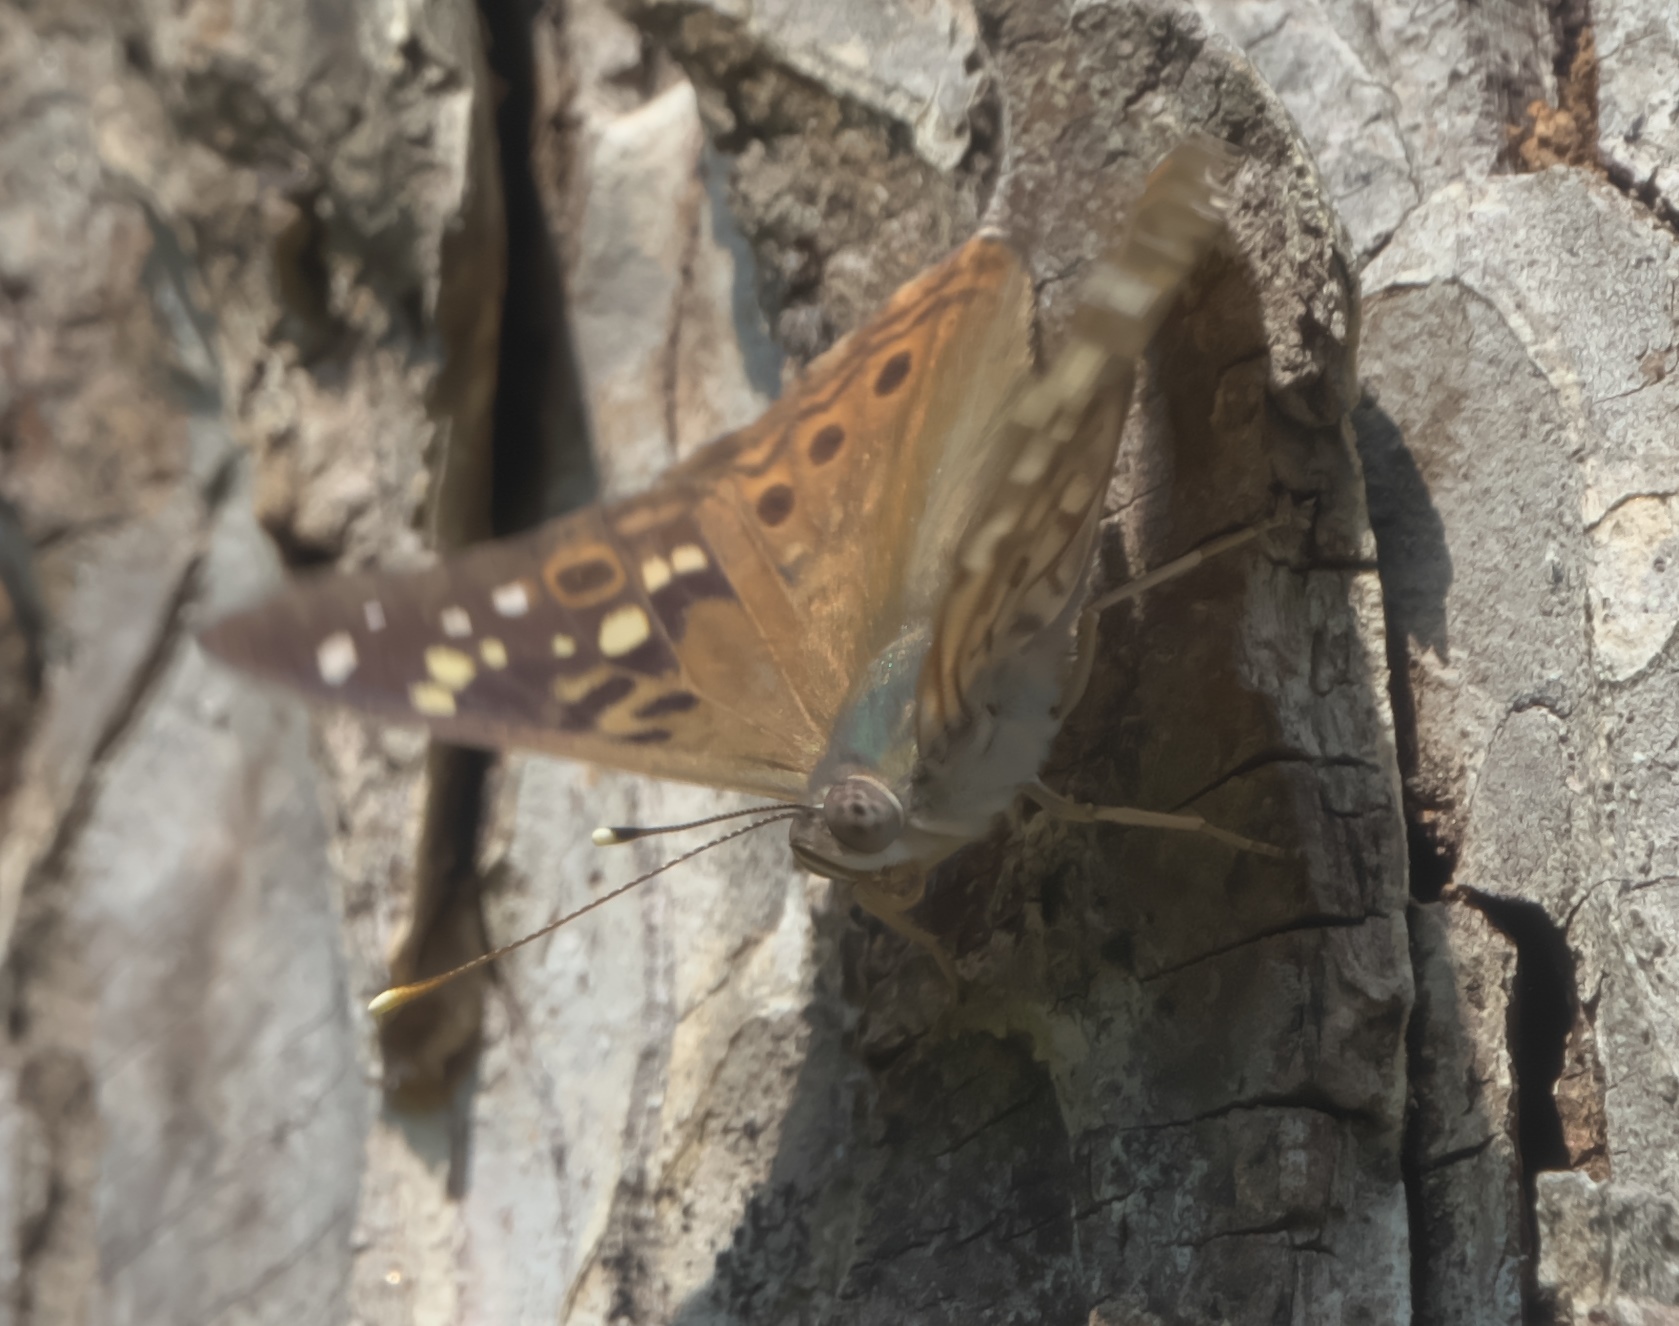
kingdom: Animalia
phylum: Arthropoda
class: Insecta
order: Lepidoptera
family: Nymphalidae
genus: Asterocampa
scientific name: Asterocampa celtis
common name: Hackberry emperor
